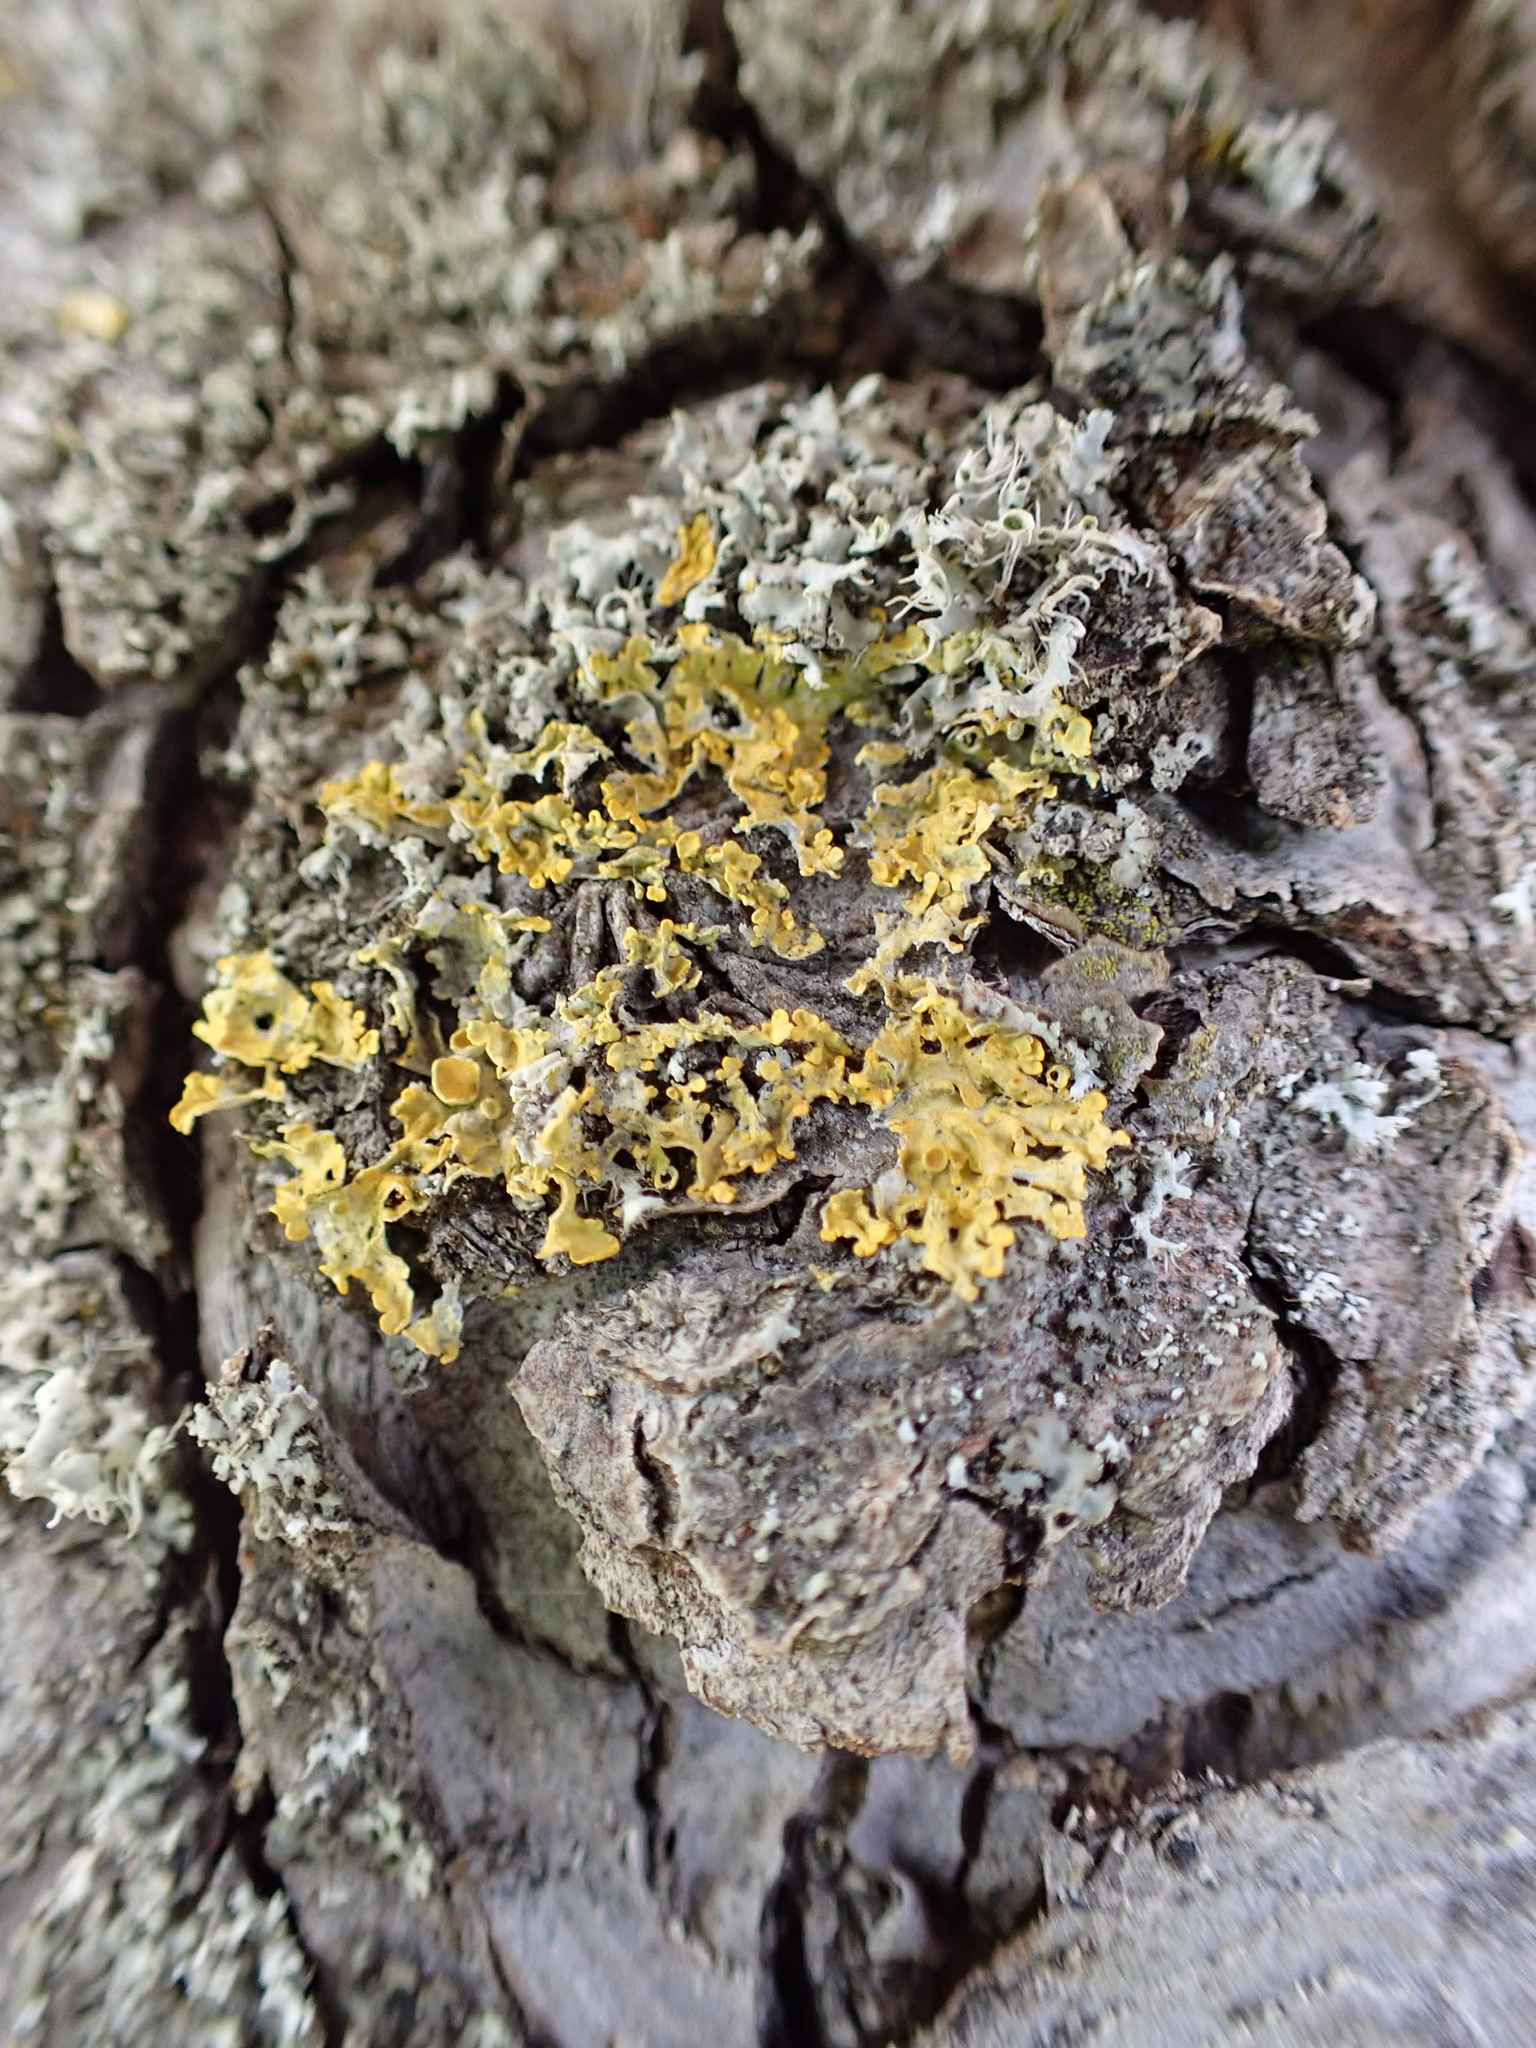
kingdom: Fungi
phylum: Ascomycota
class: Lecanoromycetes
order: Teloschistales
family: Teloschistaceae
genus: Xanthoria
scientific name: Xanthoria parietina
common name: Common orange lichen
